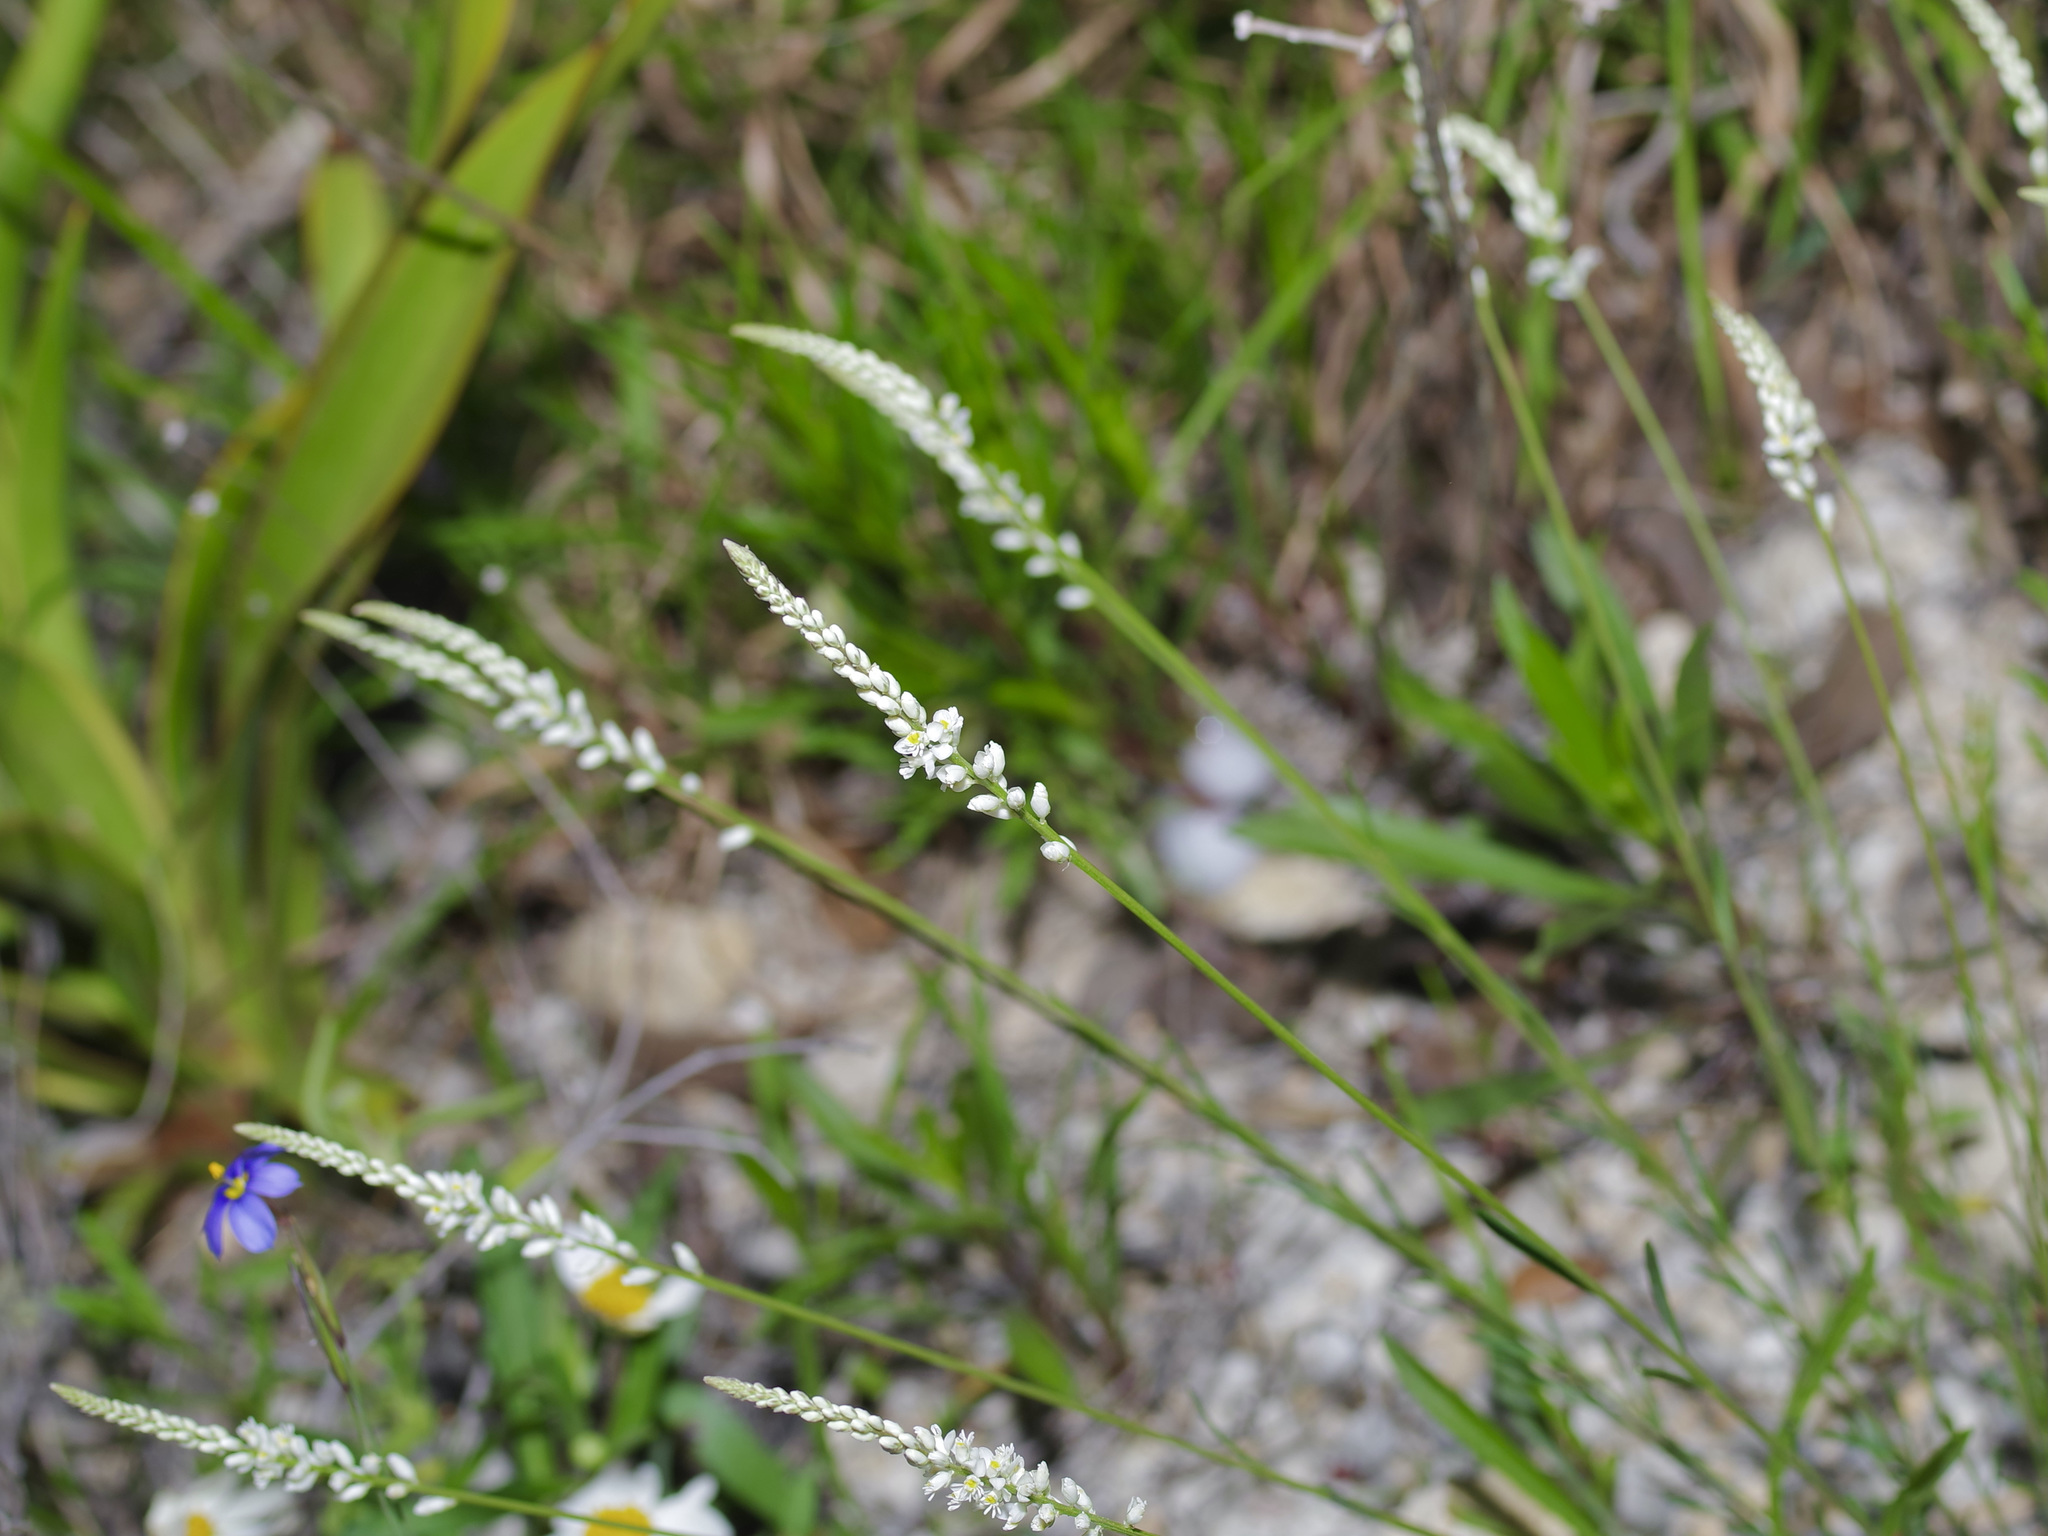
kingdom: Plantae
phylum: Tracheophyta
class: Magnoliopsida
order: Fabales
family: Polygalaceae
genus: Polygala
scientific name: Polygala alba
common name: White milkwort
